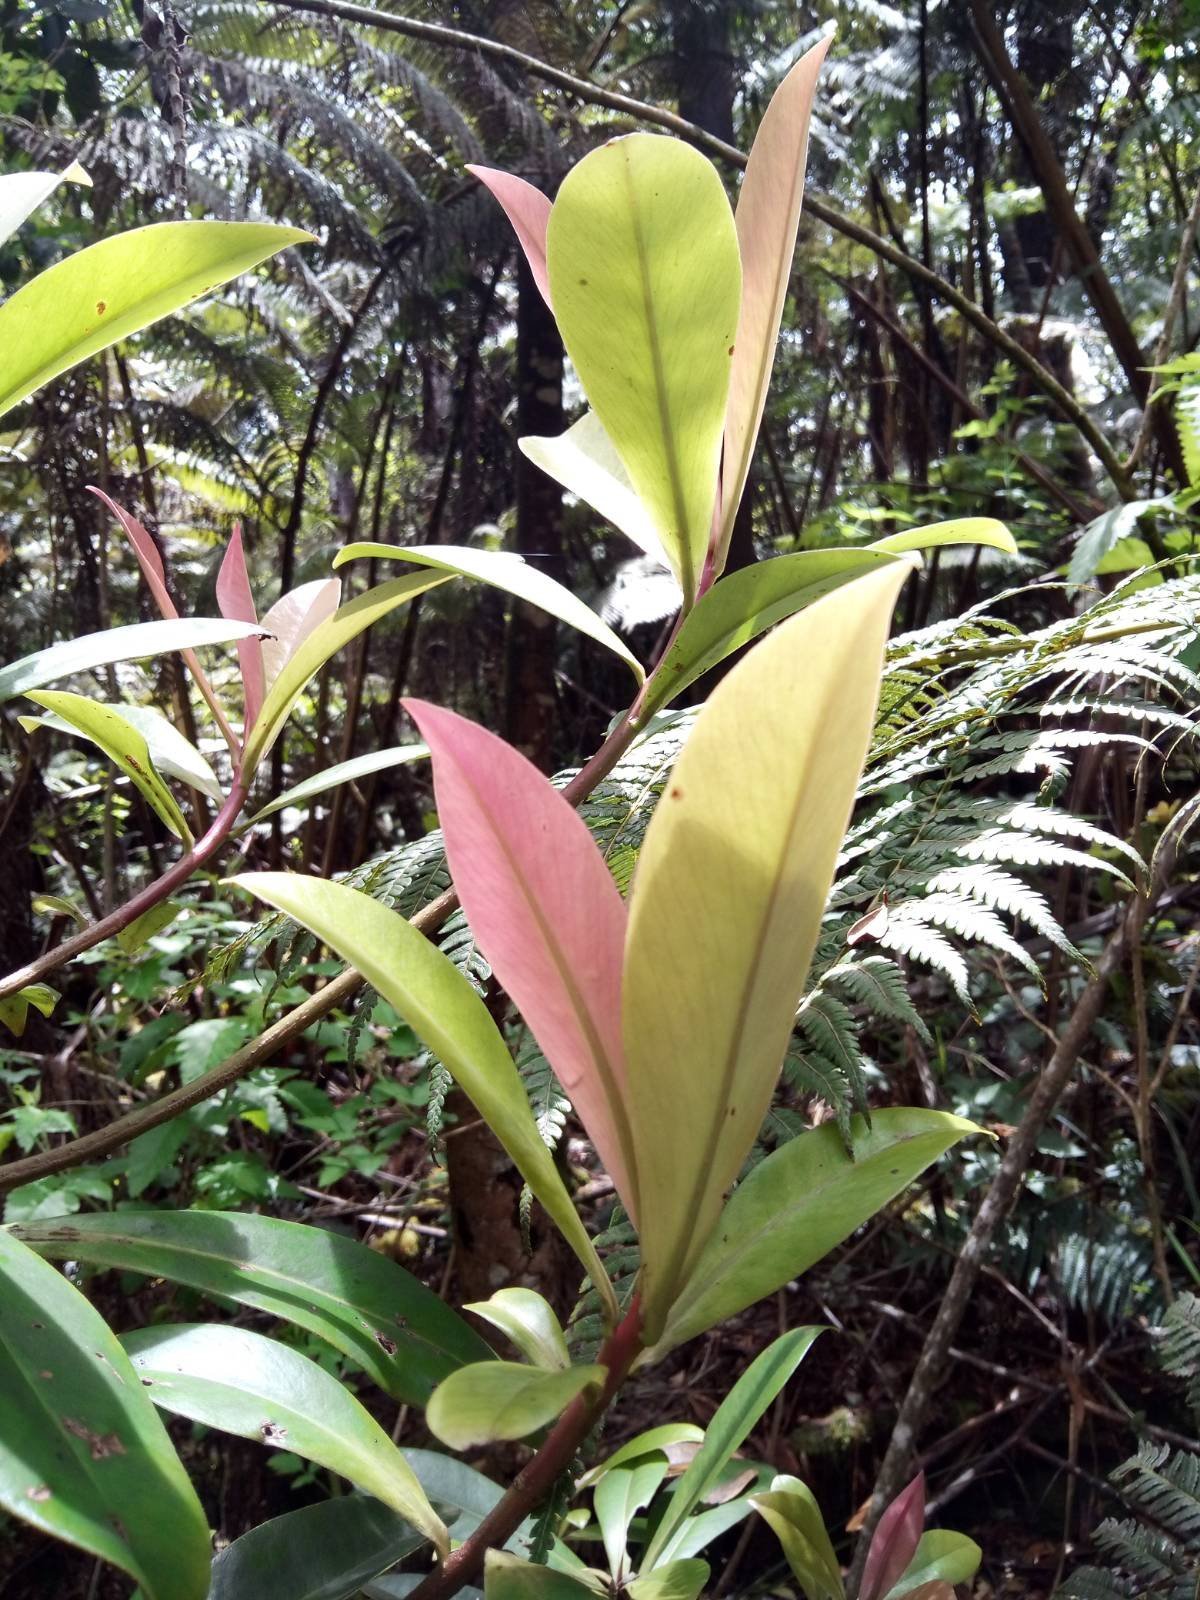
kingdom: Plantae
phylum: Tracheophyta
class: Magnoliopsida
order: Ericales
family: Primulaceae
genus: Myrsine
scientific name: Myrsine lessertiana
